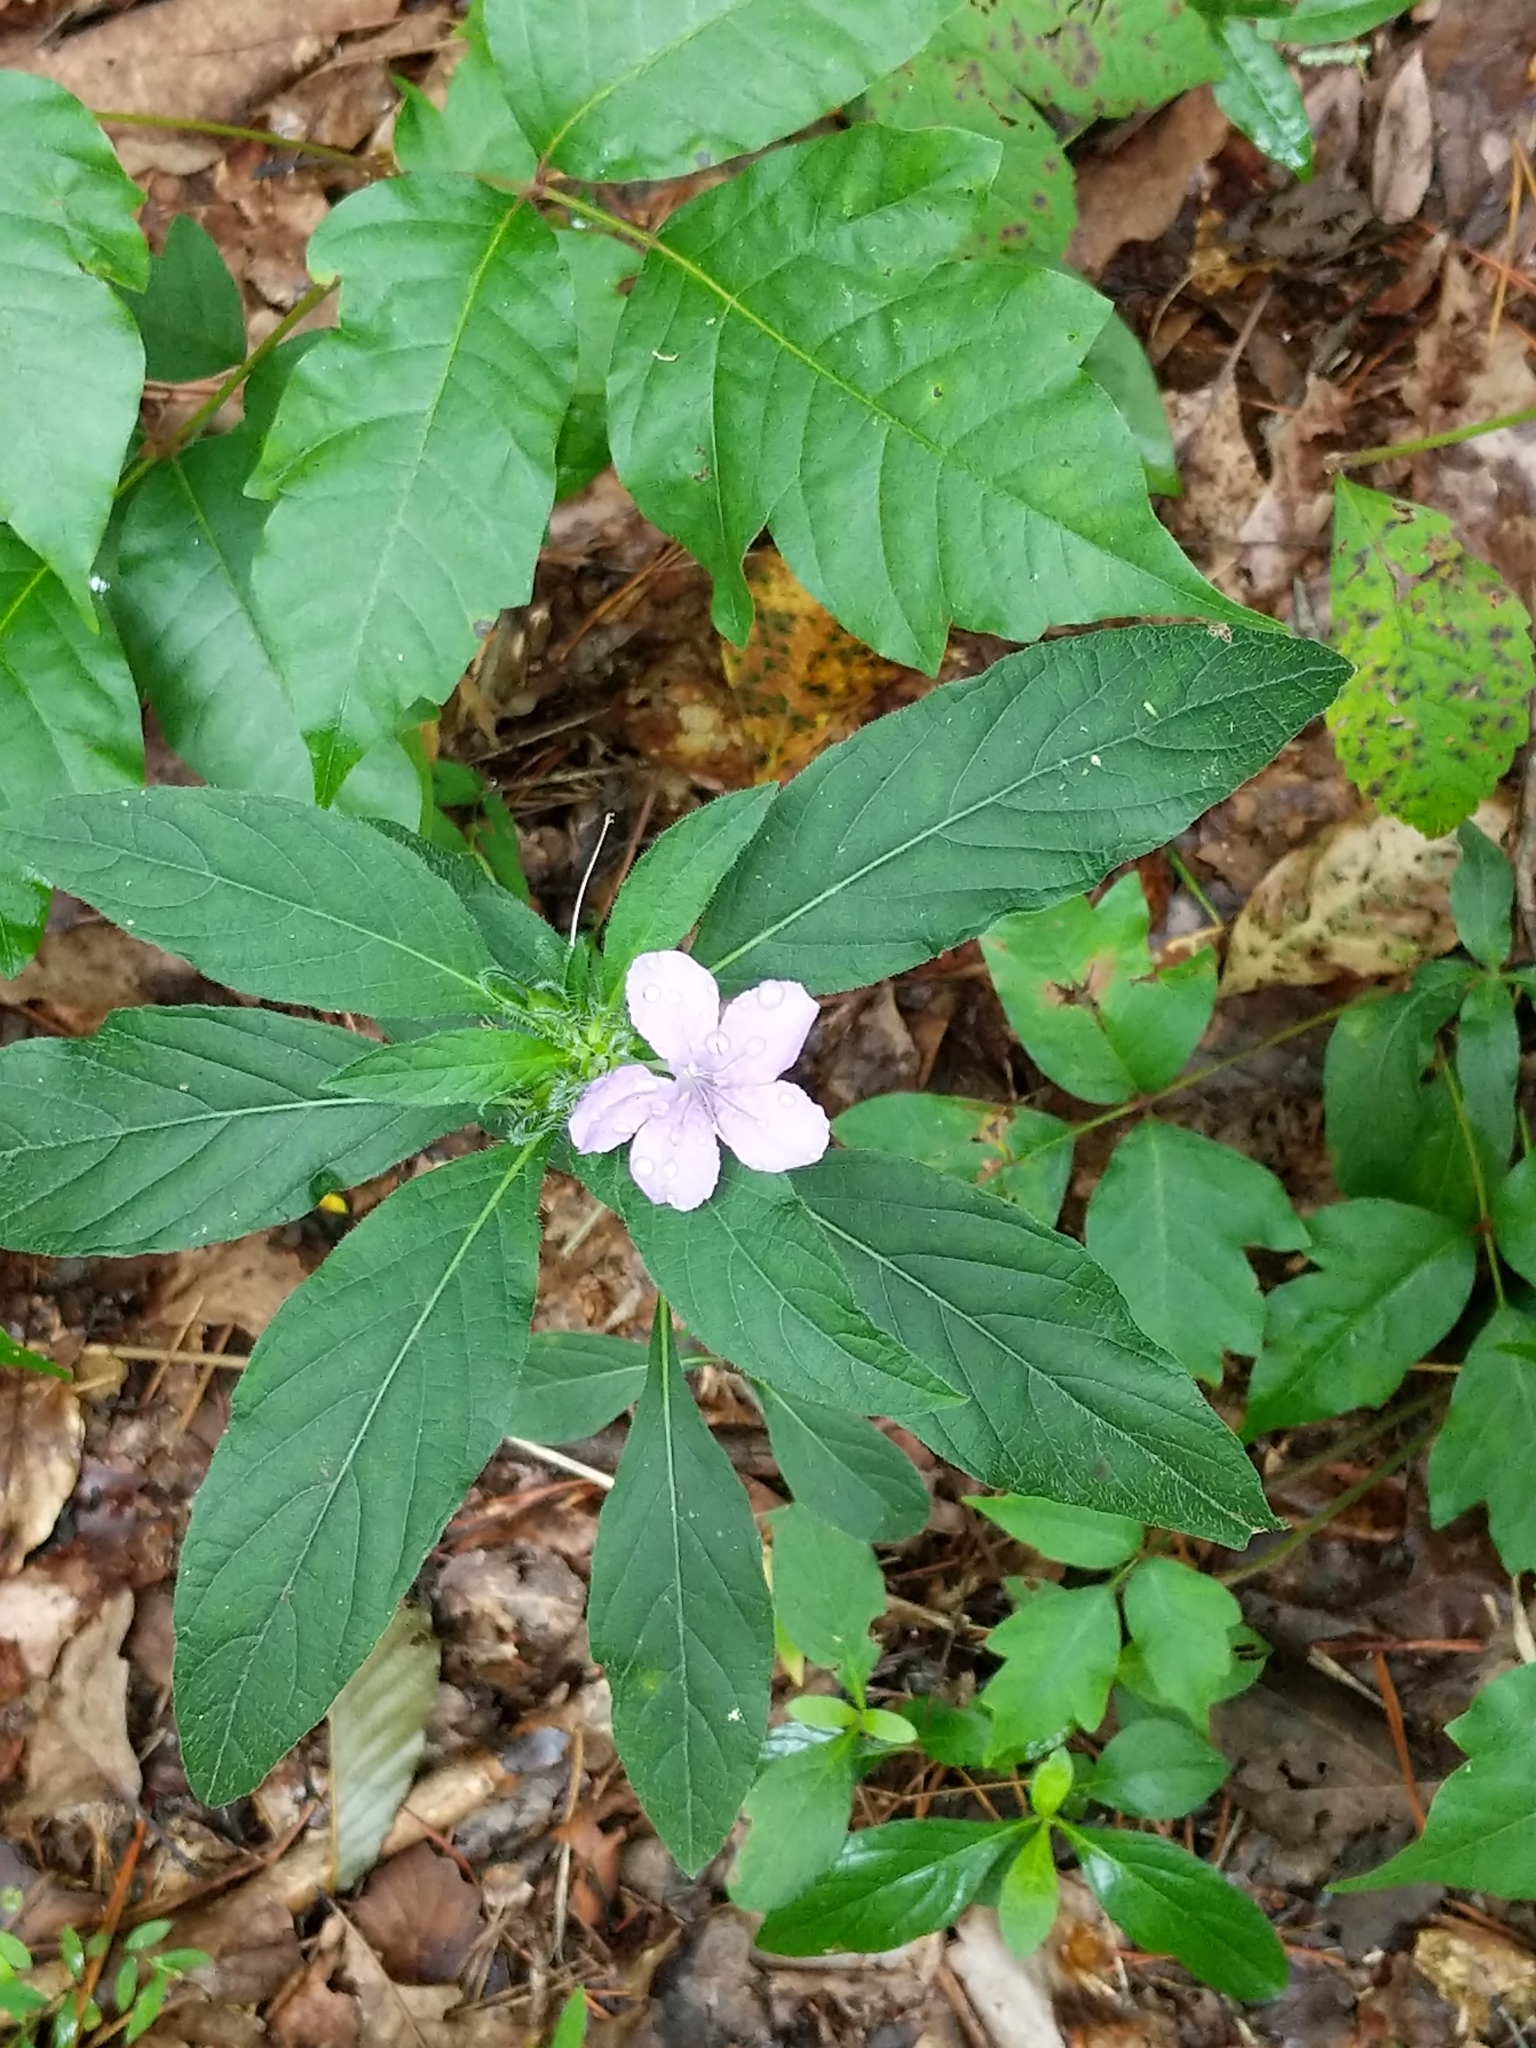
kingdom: Plantae
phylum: Tracheophyta
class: Magnoliopsida
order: Lamiales
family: Acanthaceae
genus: Ruellia
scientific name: Ruellia caroliniensis
